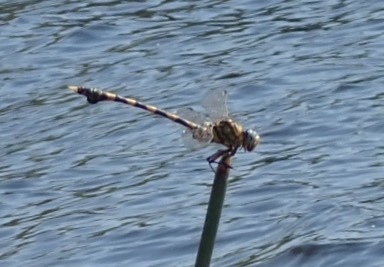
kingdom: Animalia
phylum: Arthropoda
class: Insecta
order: Odonata
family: Gomphidae
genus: Ictinogomphus
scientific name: Ictinogomphus ferox
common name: Common tiger
